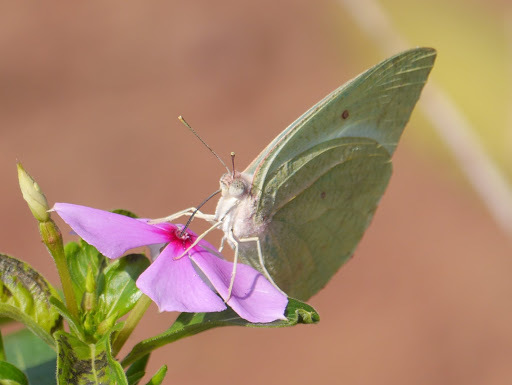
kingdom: Animalia
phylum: Arthropoda
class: Insecta
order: Lepidoptera
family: Pieridae
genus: Catopsilia
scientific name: Catopsilia florella
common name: African migrant
